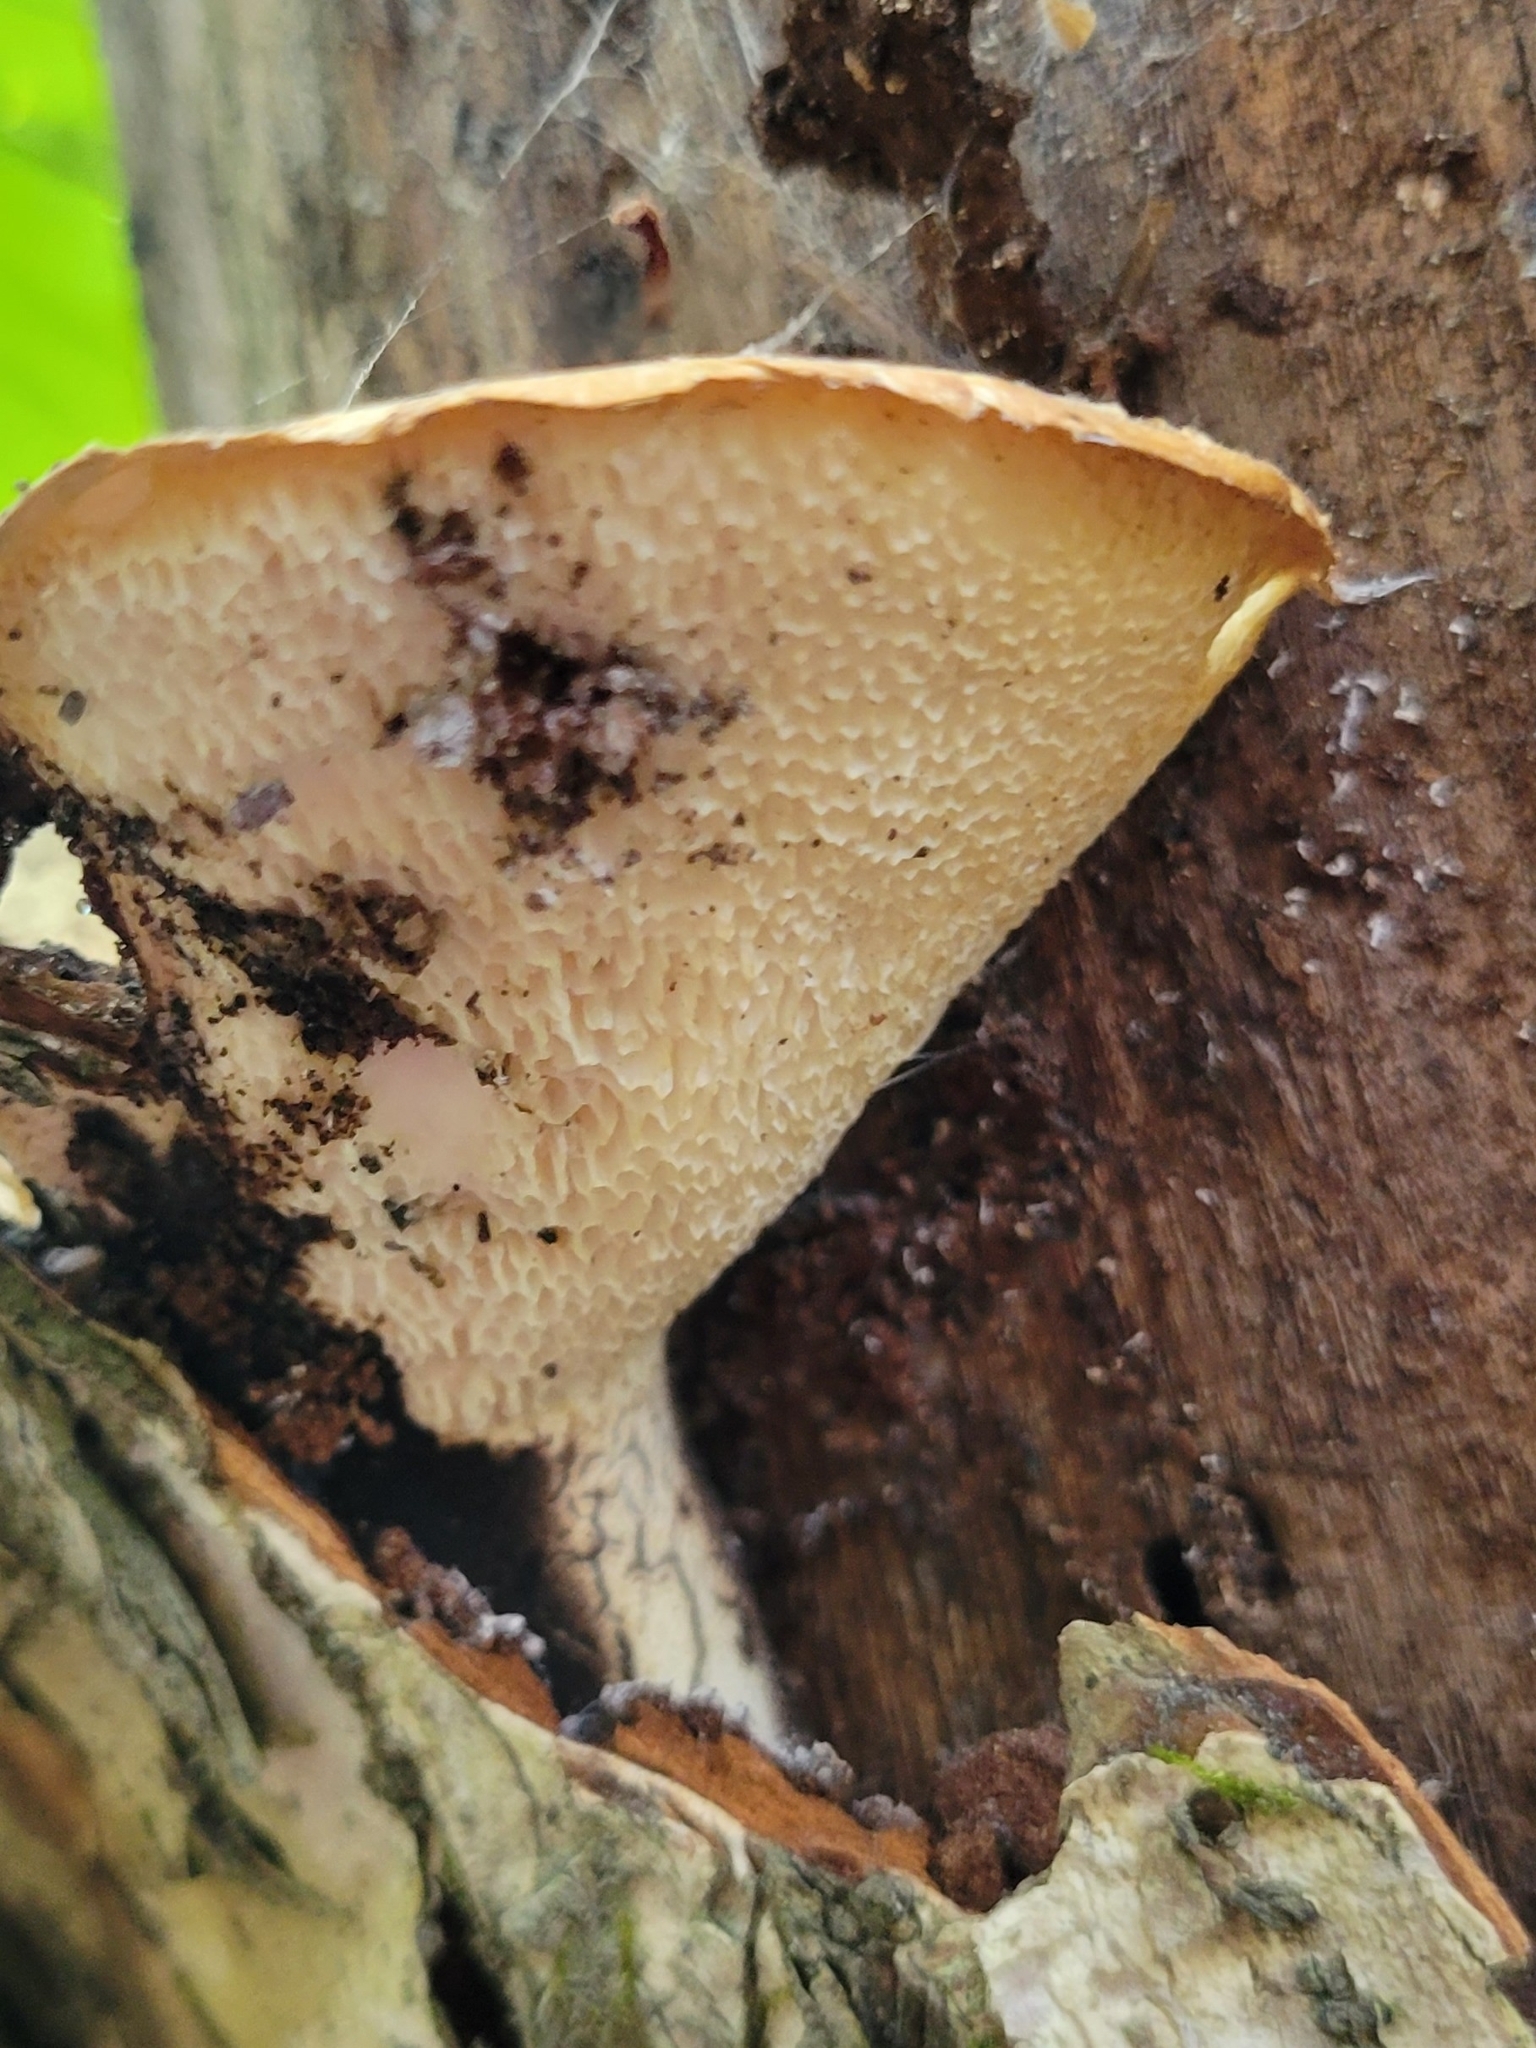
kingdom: Fungi
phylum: Basidiomycota
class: Agaricomycetes
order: Polyporales
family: Polyporaceae
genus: Cerioporus
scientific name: Cerioporus squamosus
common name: Dryad's saddle
